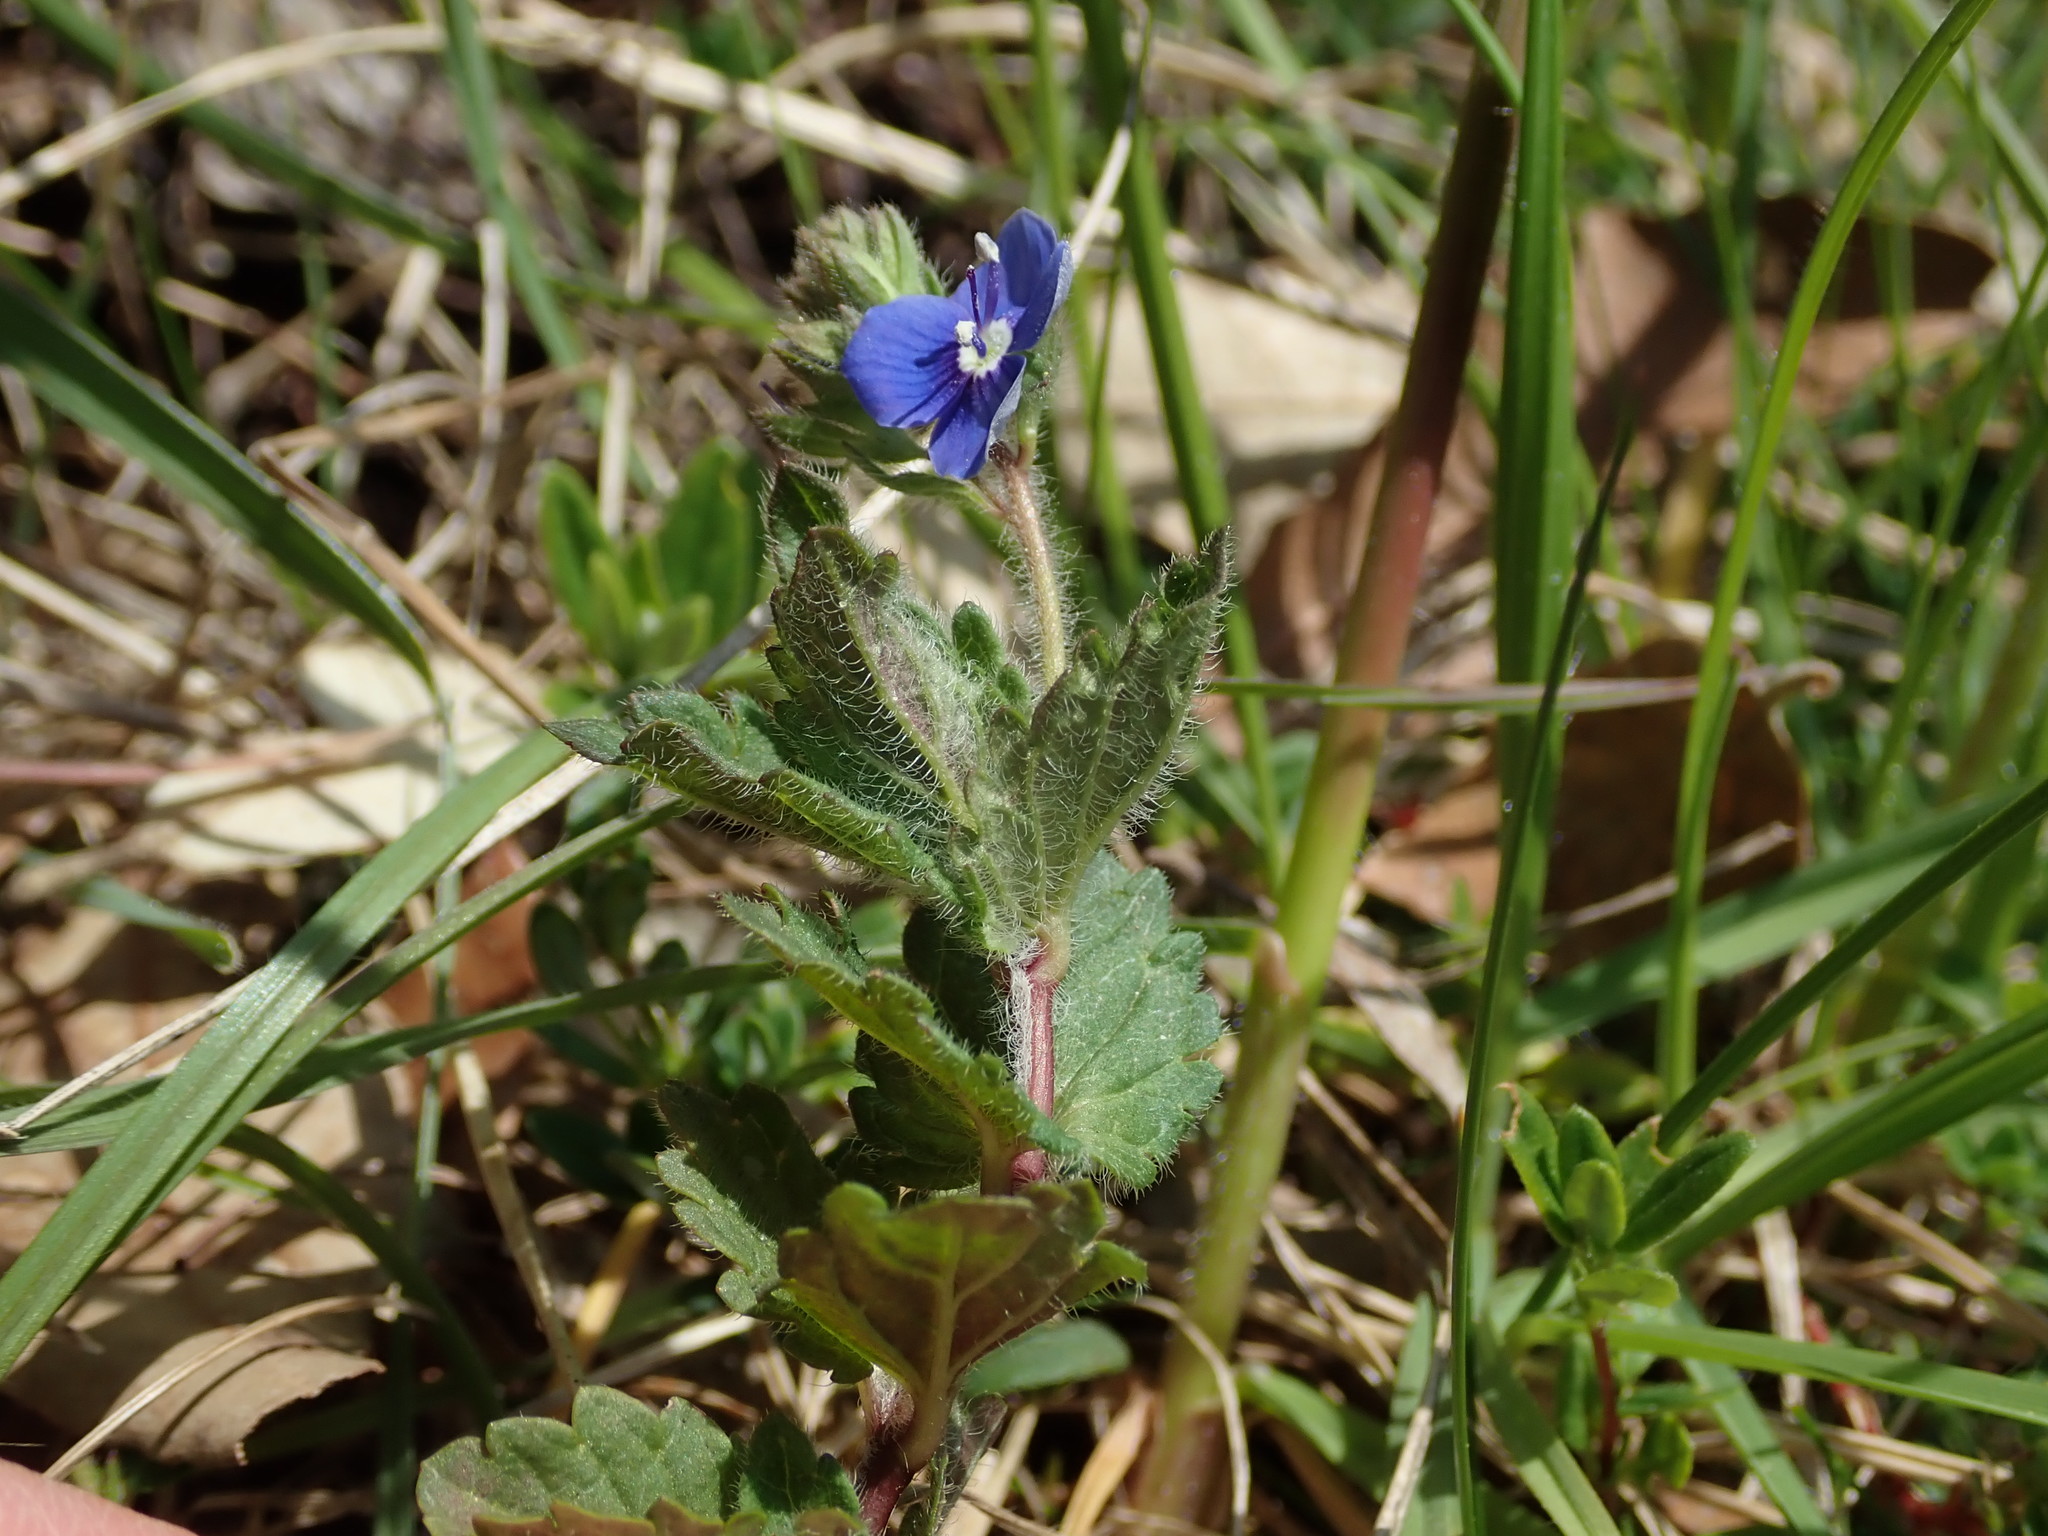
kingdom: Plantae
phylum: Tracheophyta
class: Magnoliopsida
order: Lamiales
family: Plantaginaceae
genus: Veronica
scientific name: Veronica chamaedrys
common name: Germander speedwell
